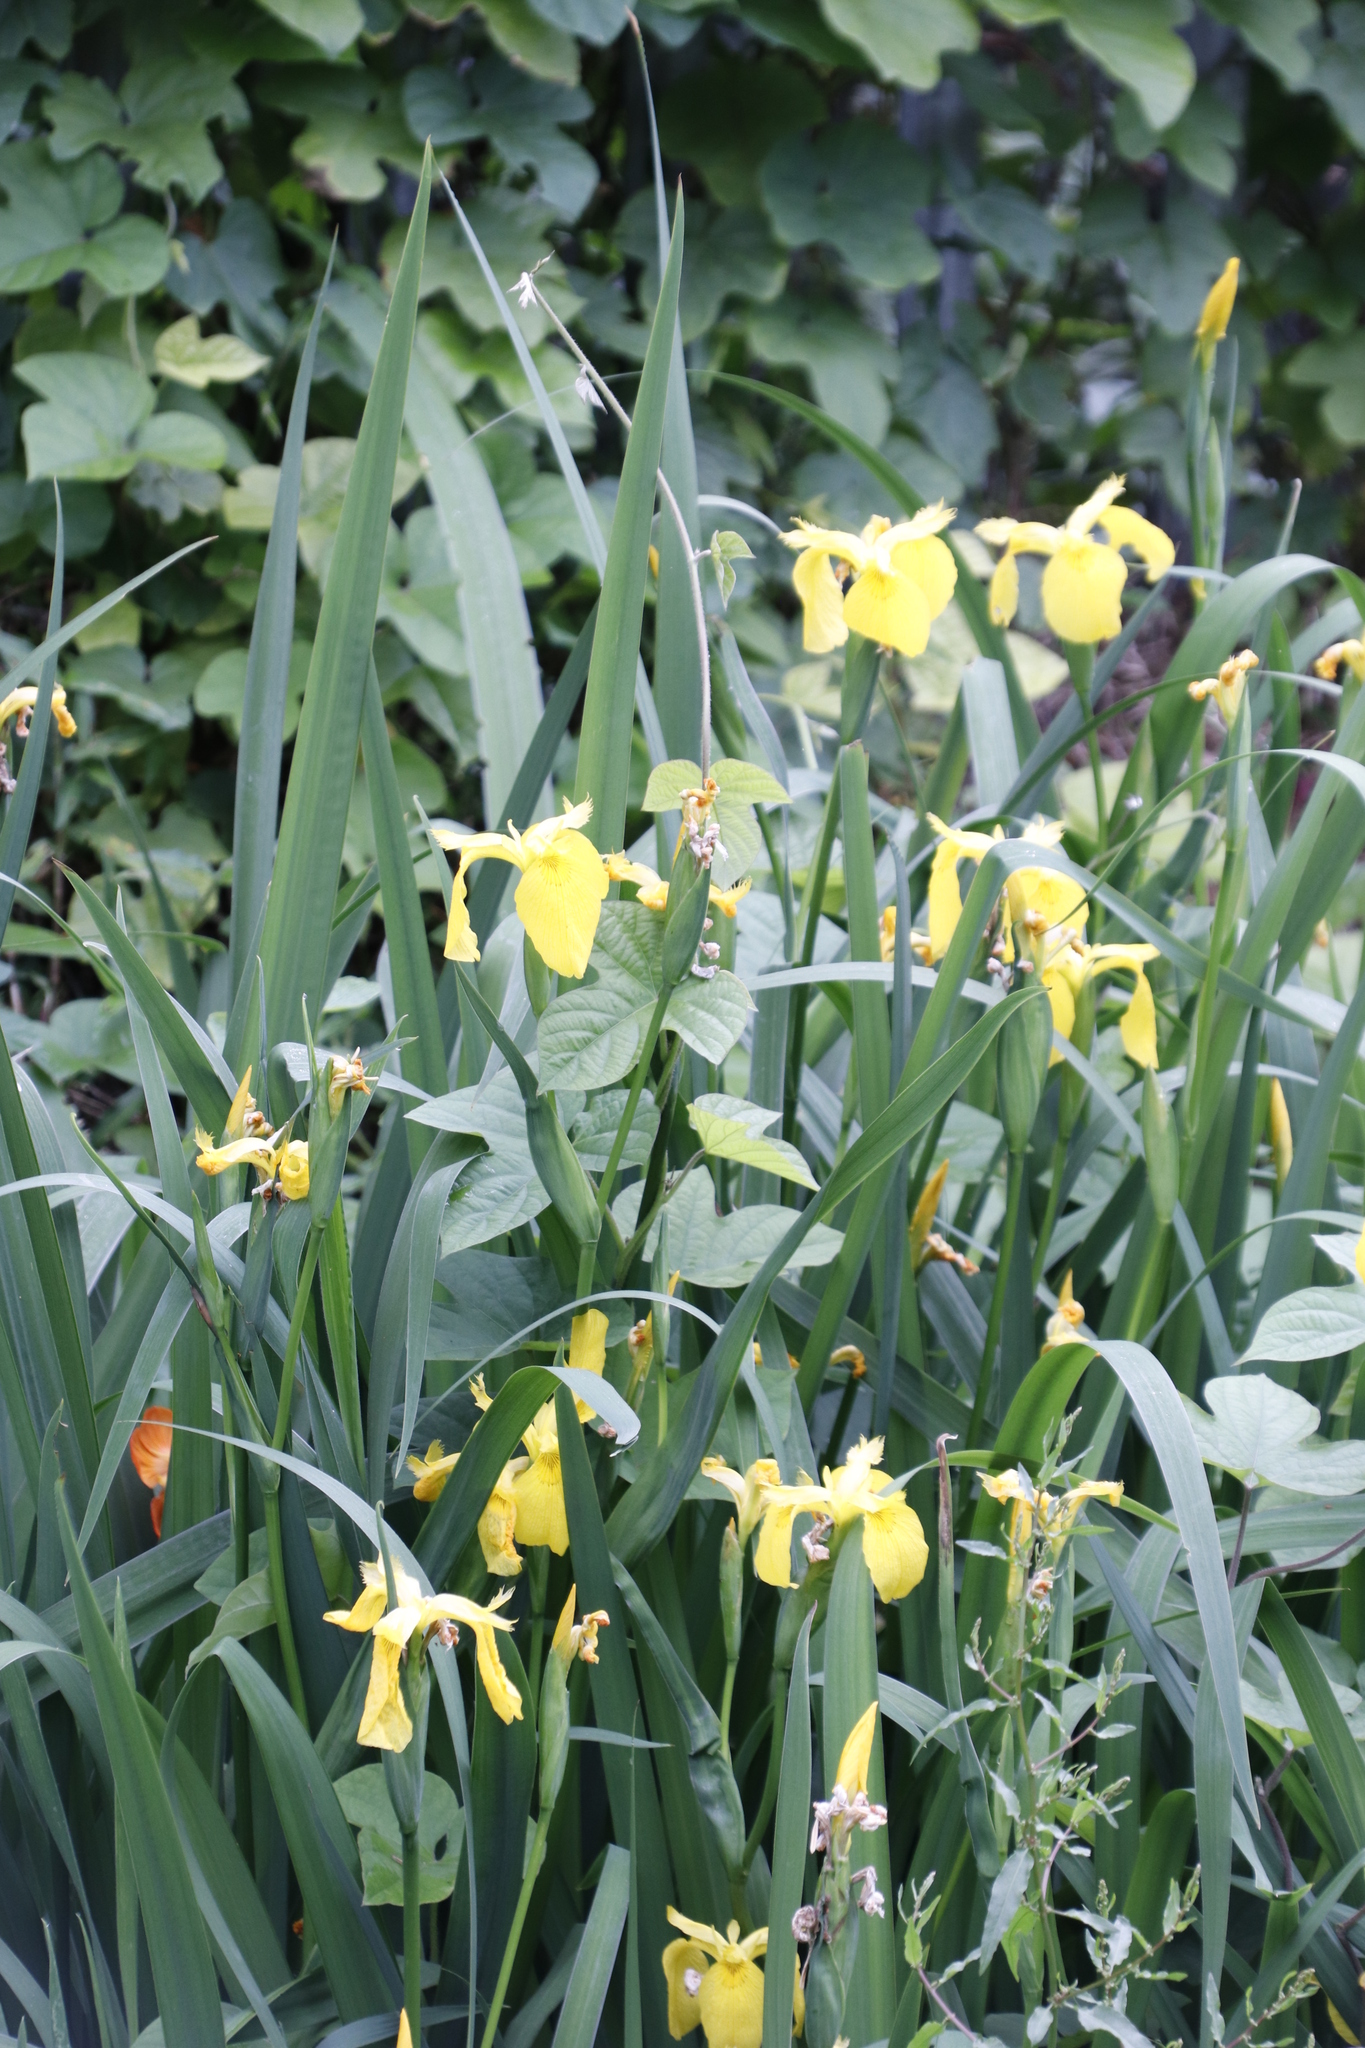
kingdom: Plantae
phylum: Tracheophyta
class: Liliopsida
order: Asparagales
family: Iridaceae
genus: Iris
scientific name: Iris pseudacorus
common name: Yellow flag
